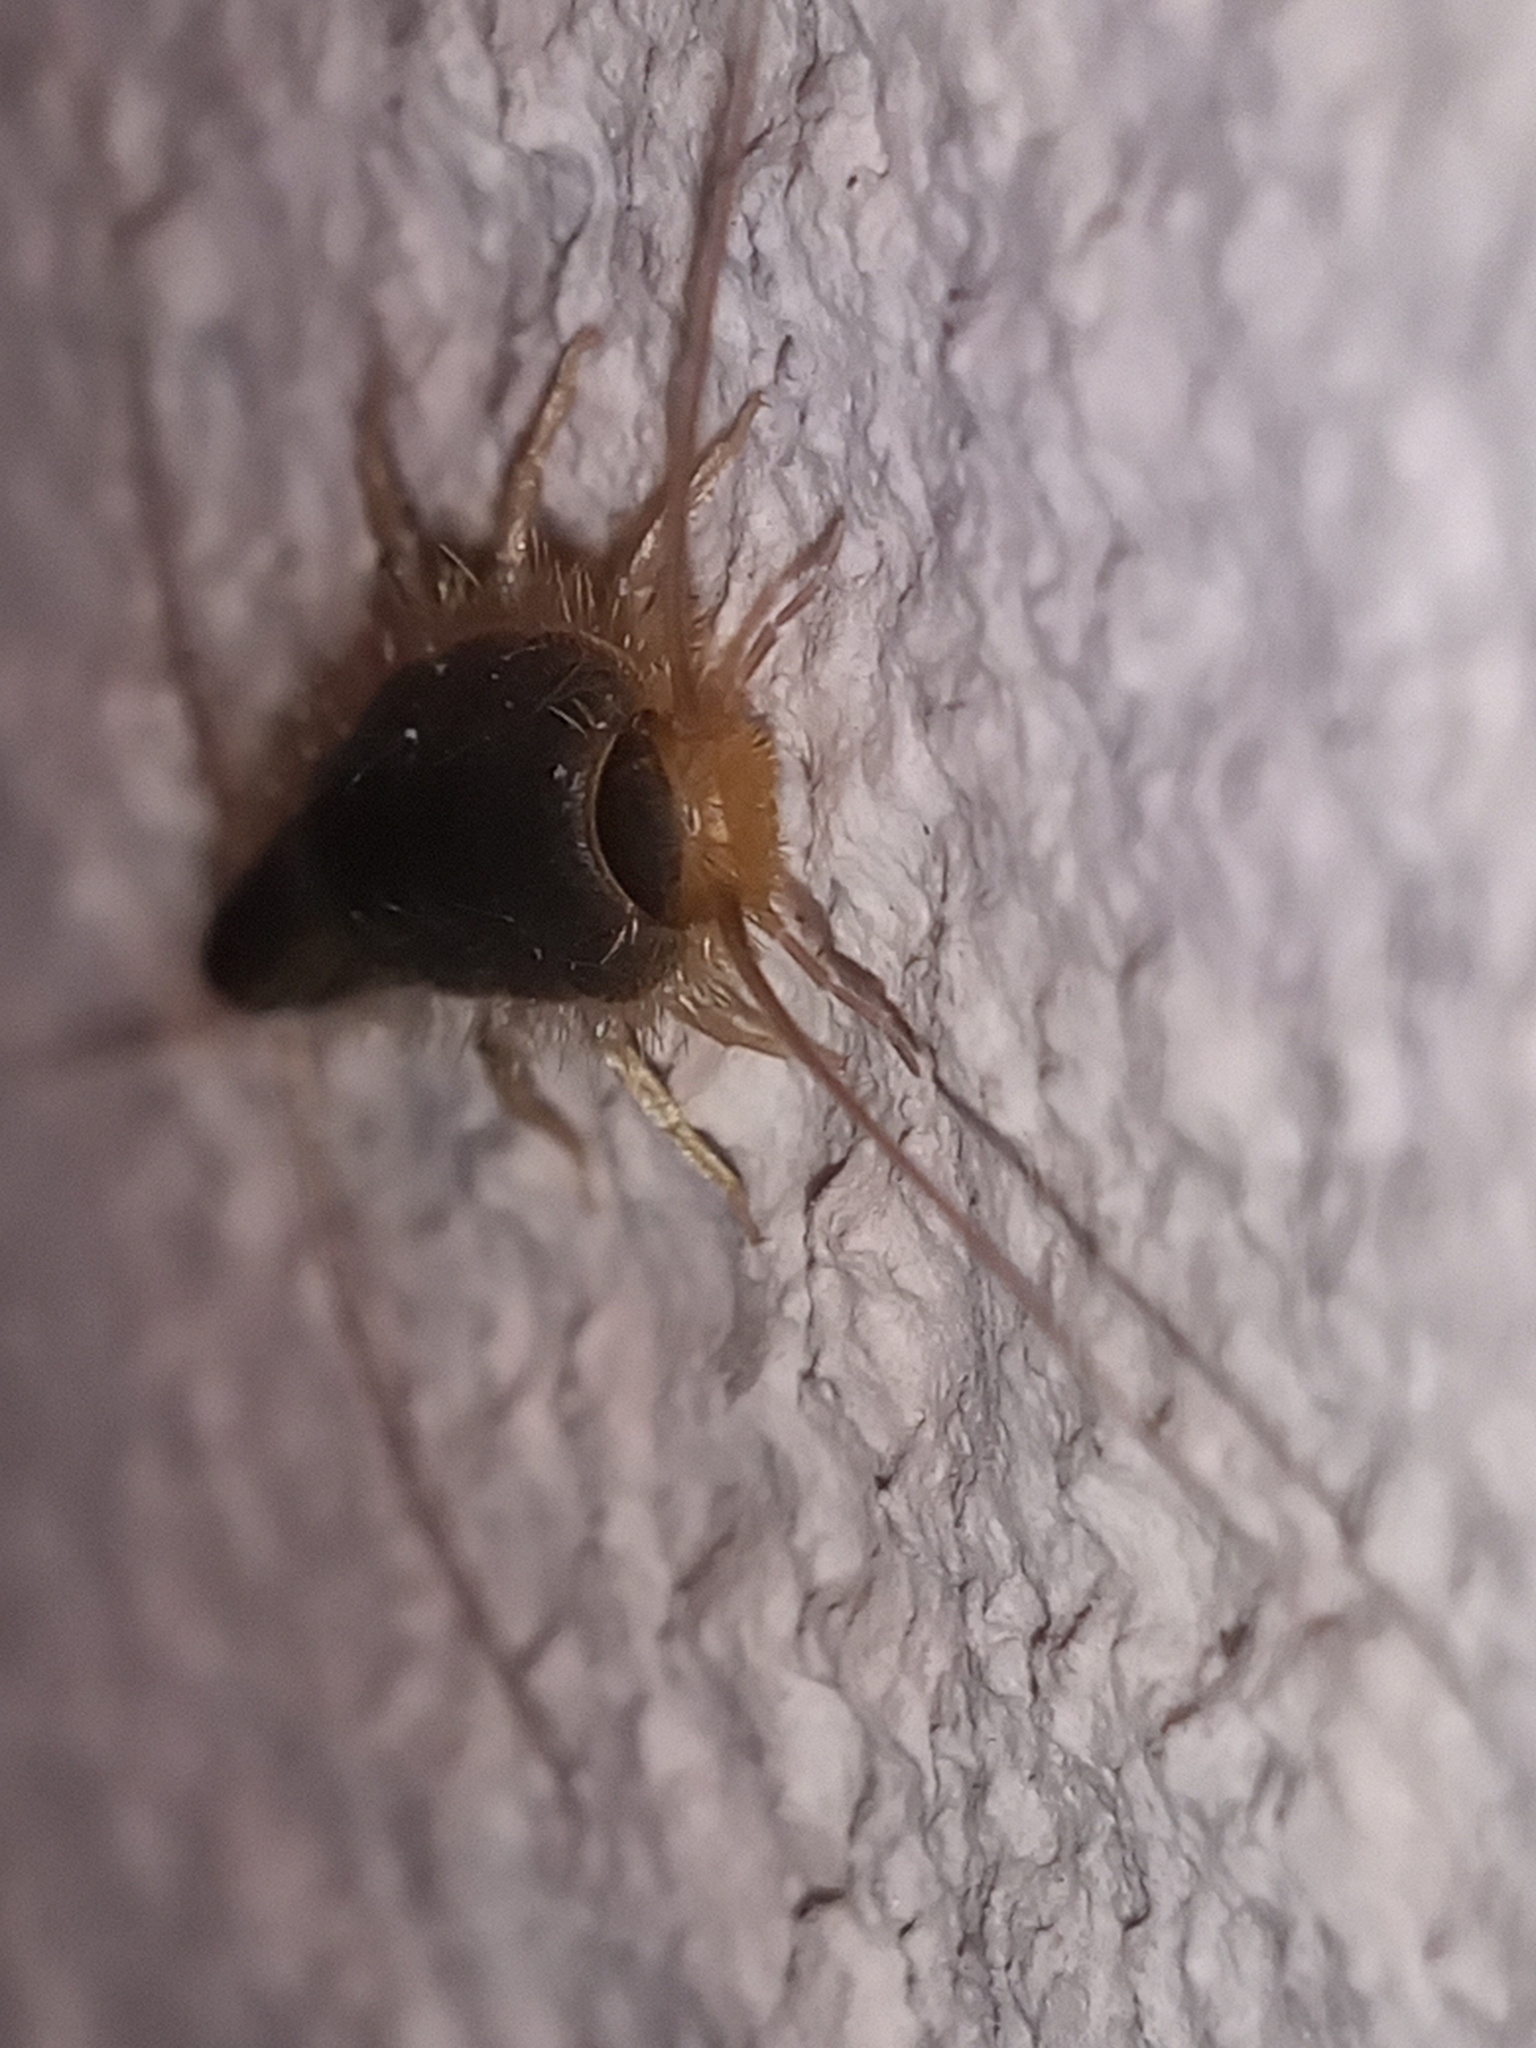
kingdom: Animalia
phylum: Arthropoda
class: Insecta
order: Zygentoma
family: Lepismatidae
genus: Ctenolepisma
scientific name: Ctenolepisma longicaudatum
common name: Silverfish
